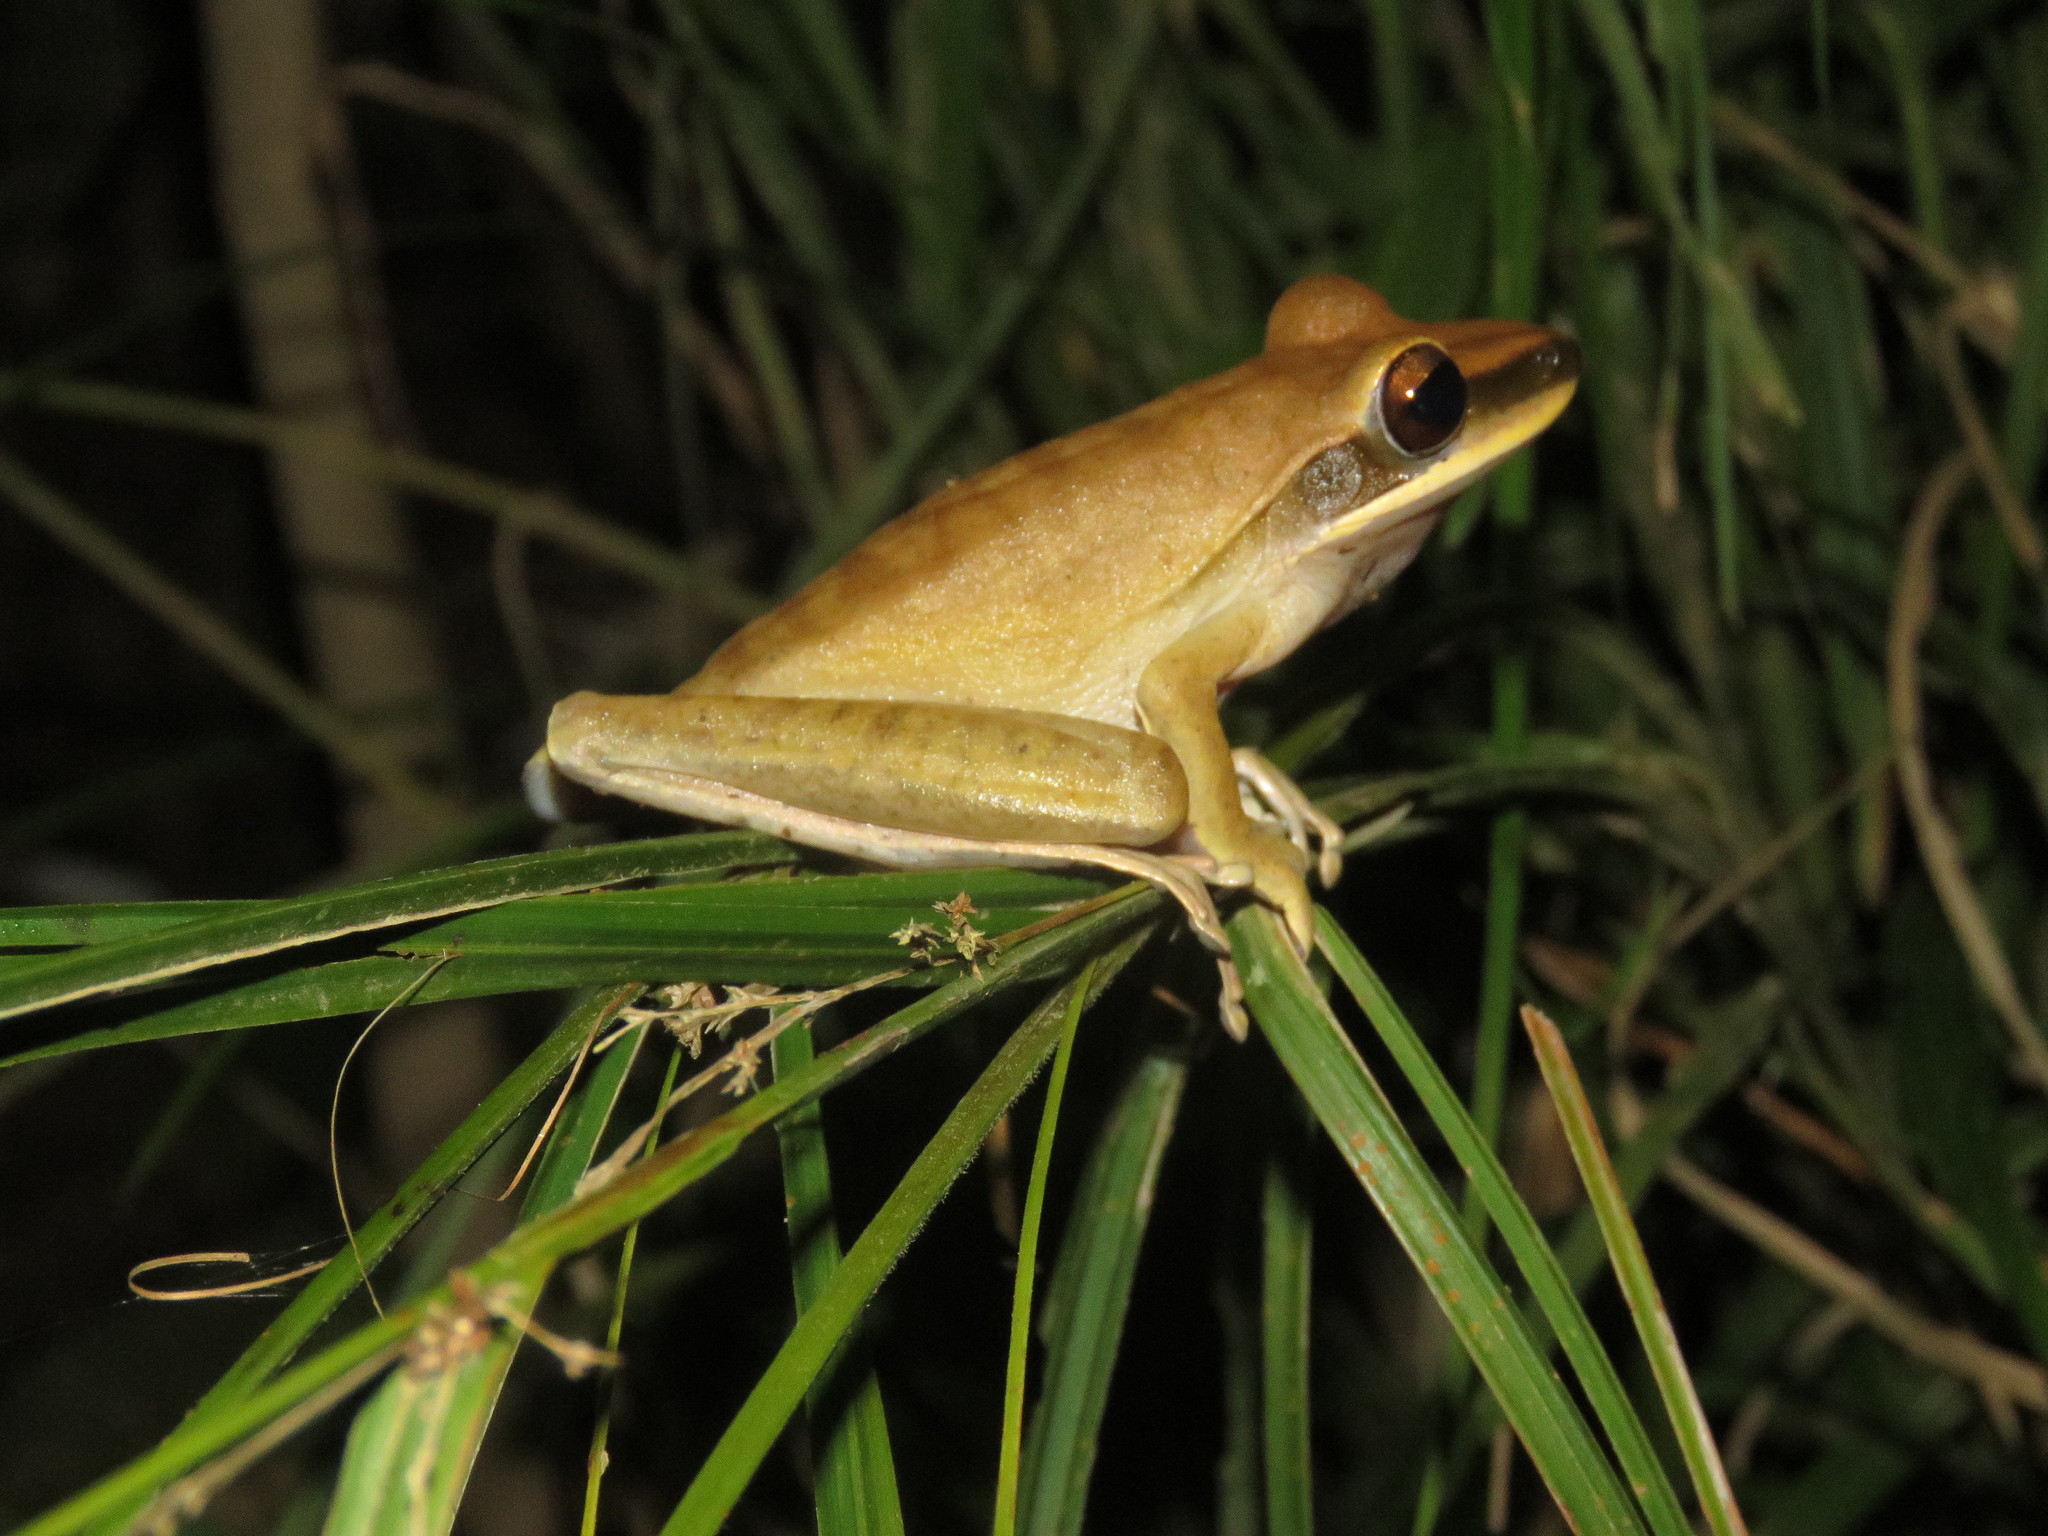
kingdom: Animalia
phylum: Chordata
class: Amphibia
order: Anura
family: Hylidae
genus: Boana
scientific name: Boana lanciformis
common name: Rana lanceolada commún
